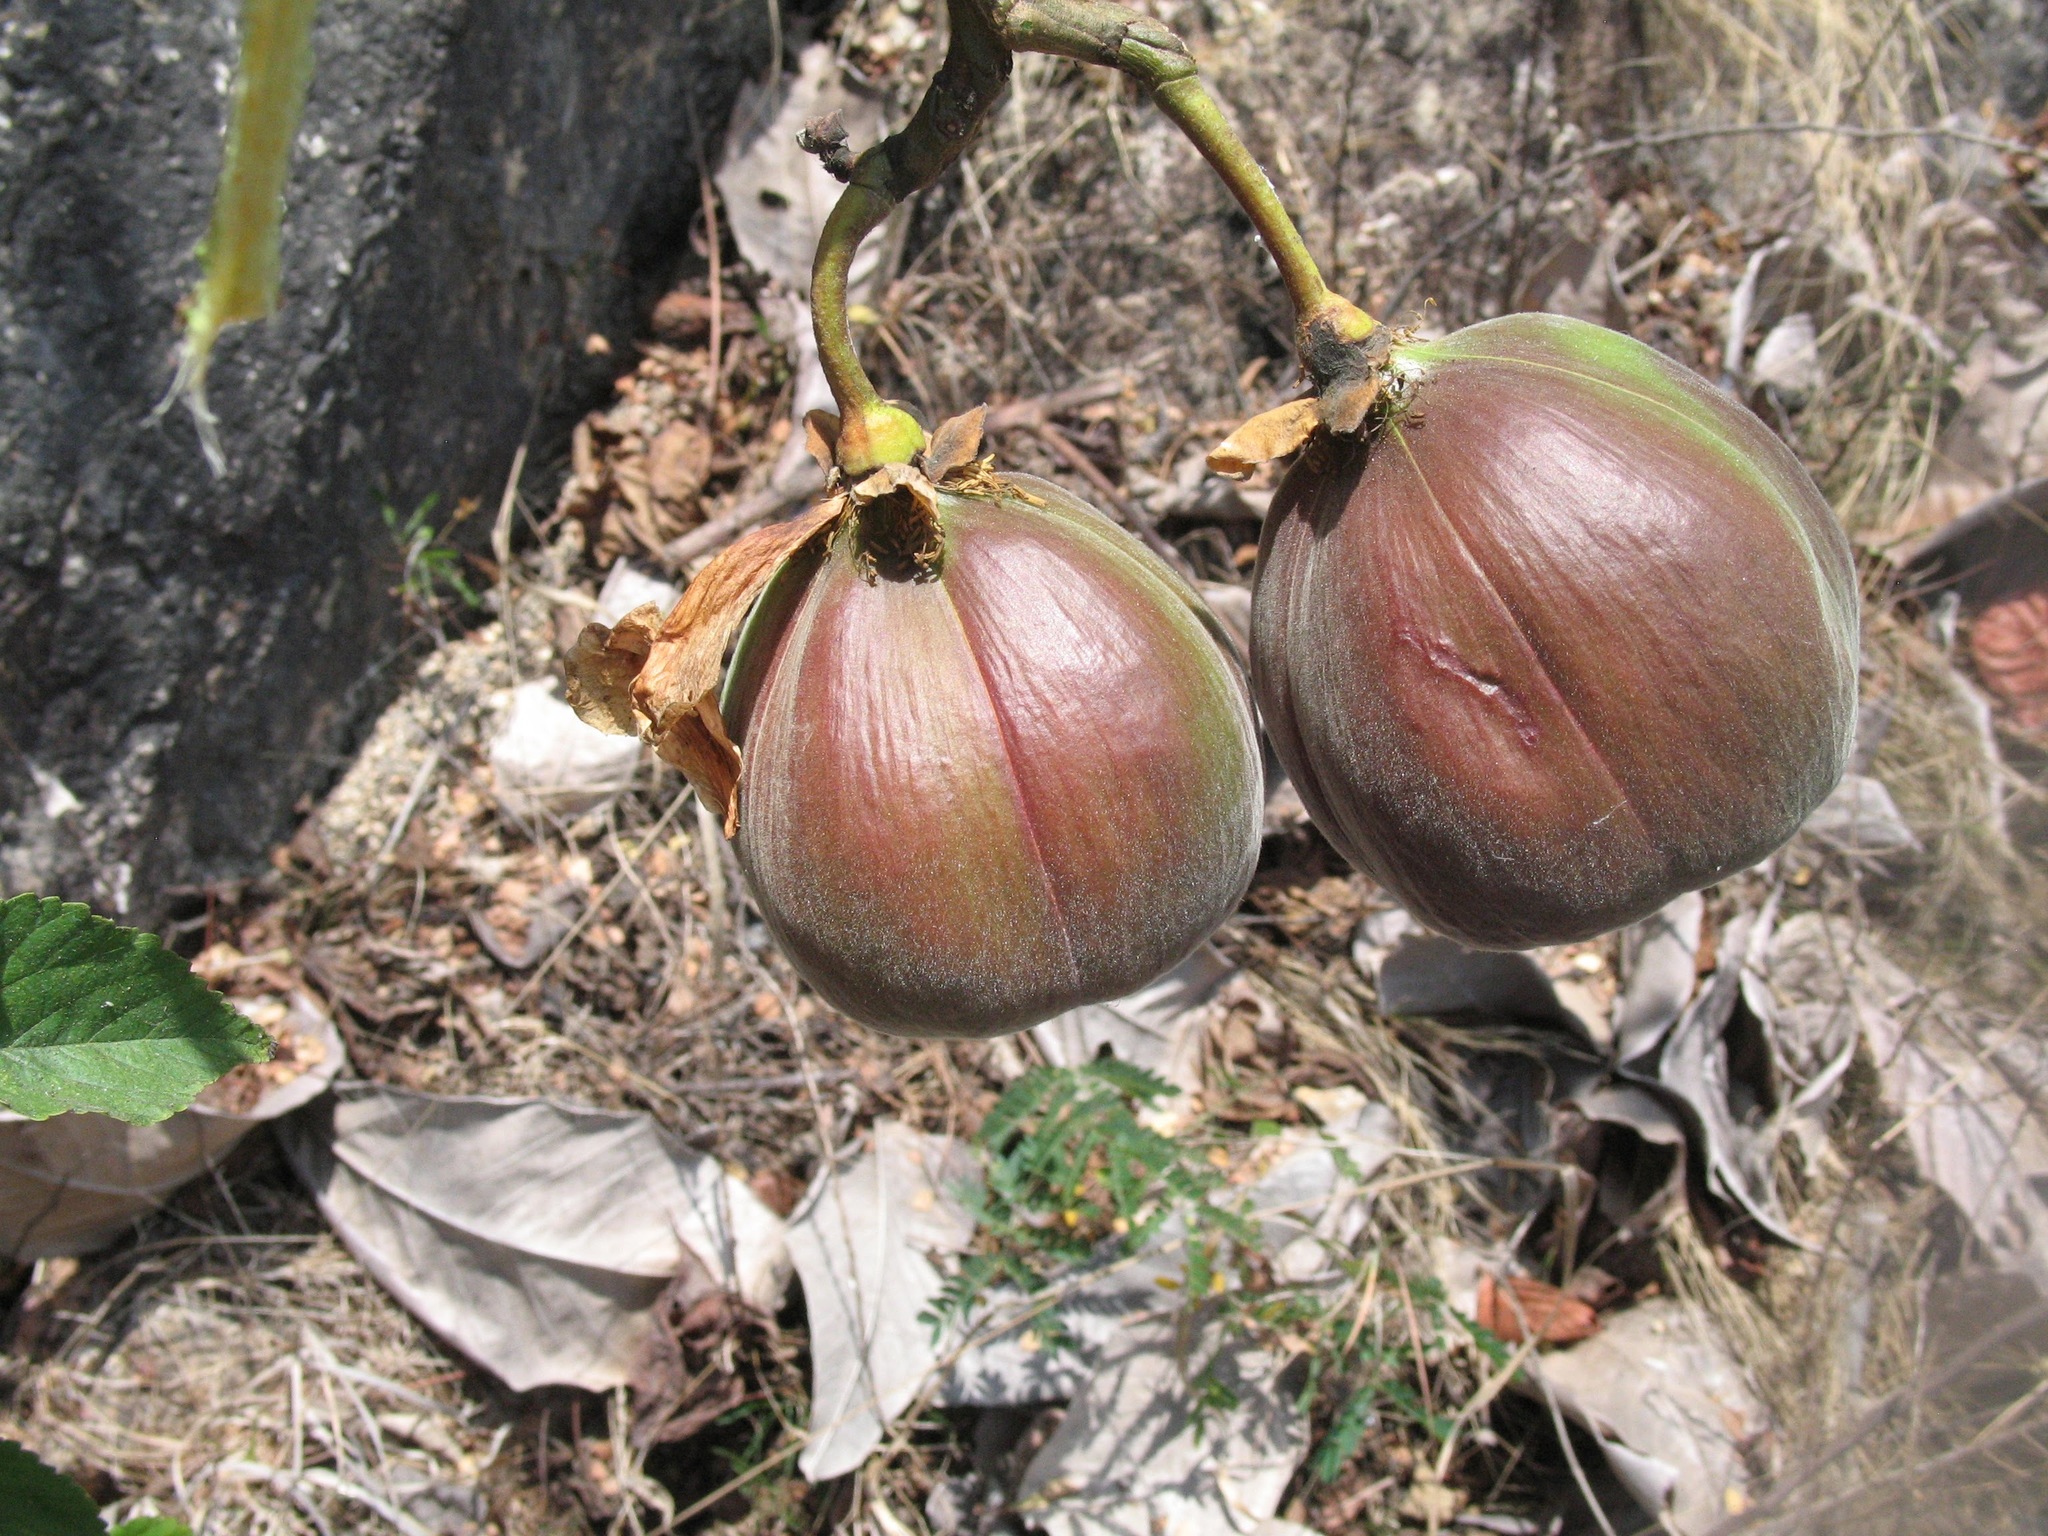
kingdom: Plantae
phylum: Tracheophyta
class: Magnoliopsida
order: Malvales
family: Cochlospermaceae
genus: Cochlospermum
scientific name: Cochlospermum vitifolium
